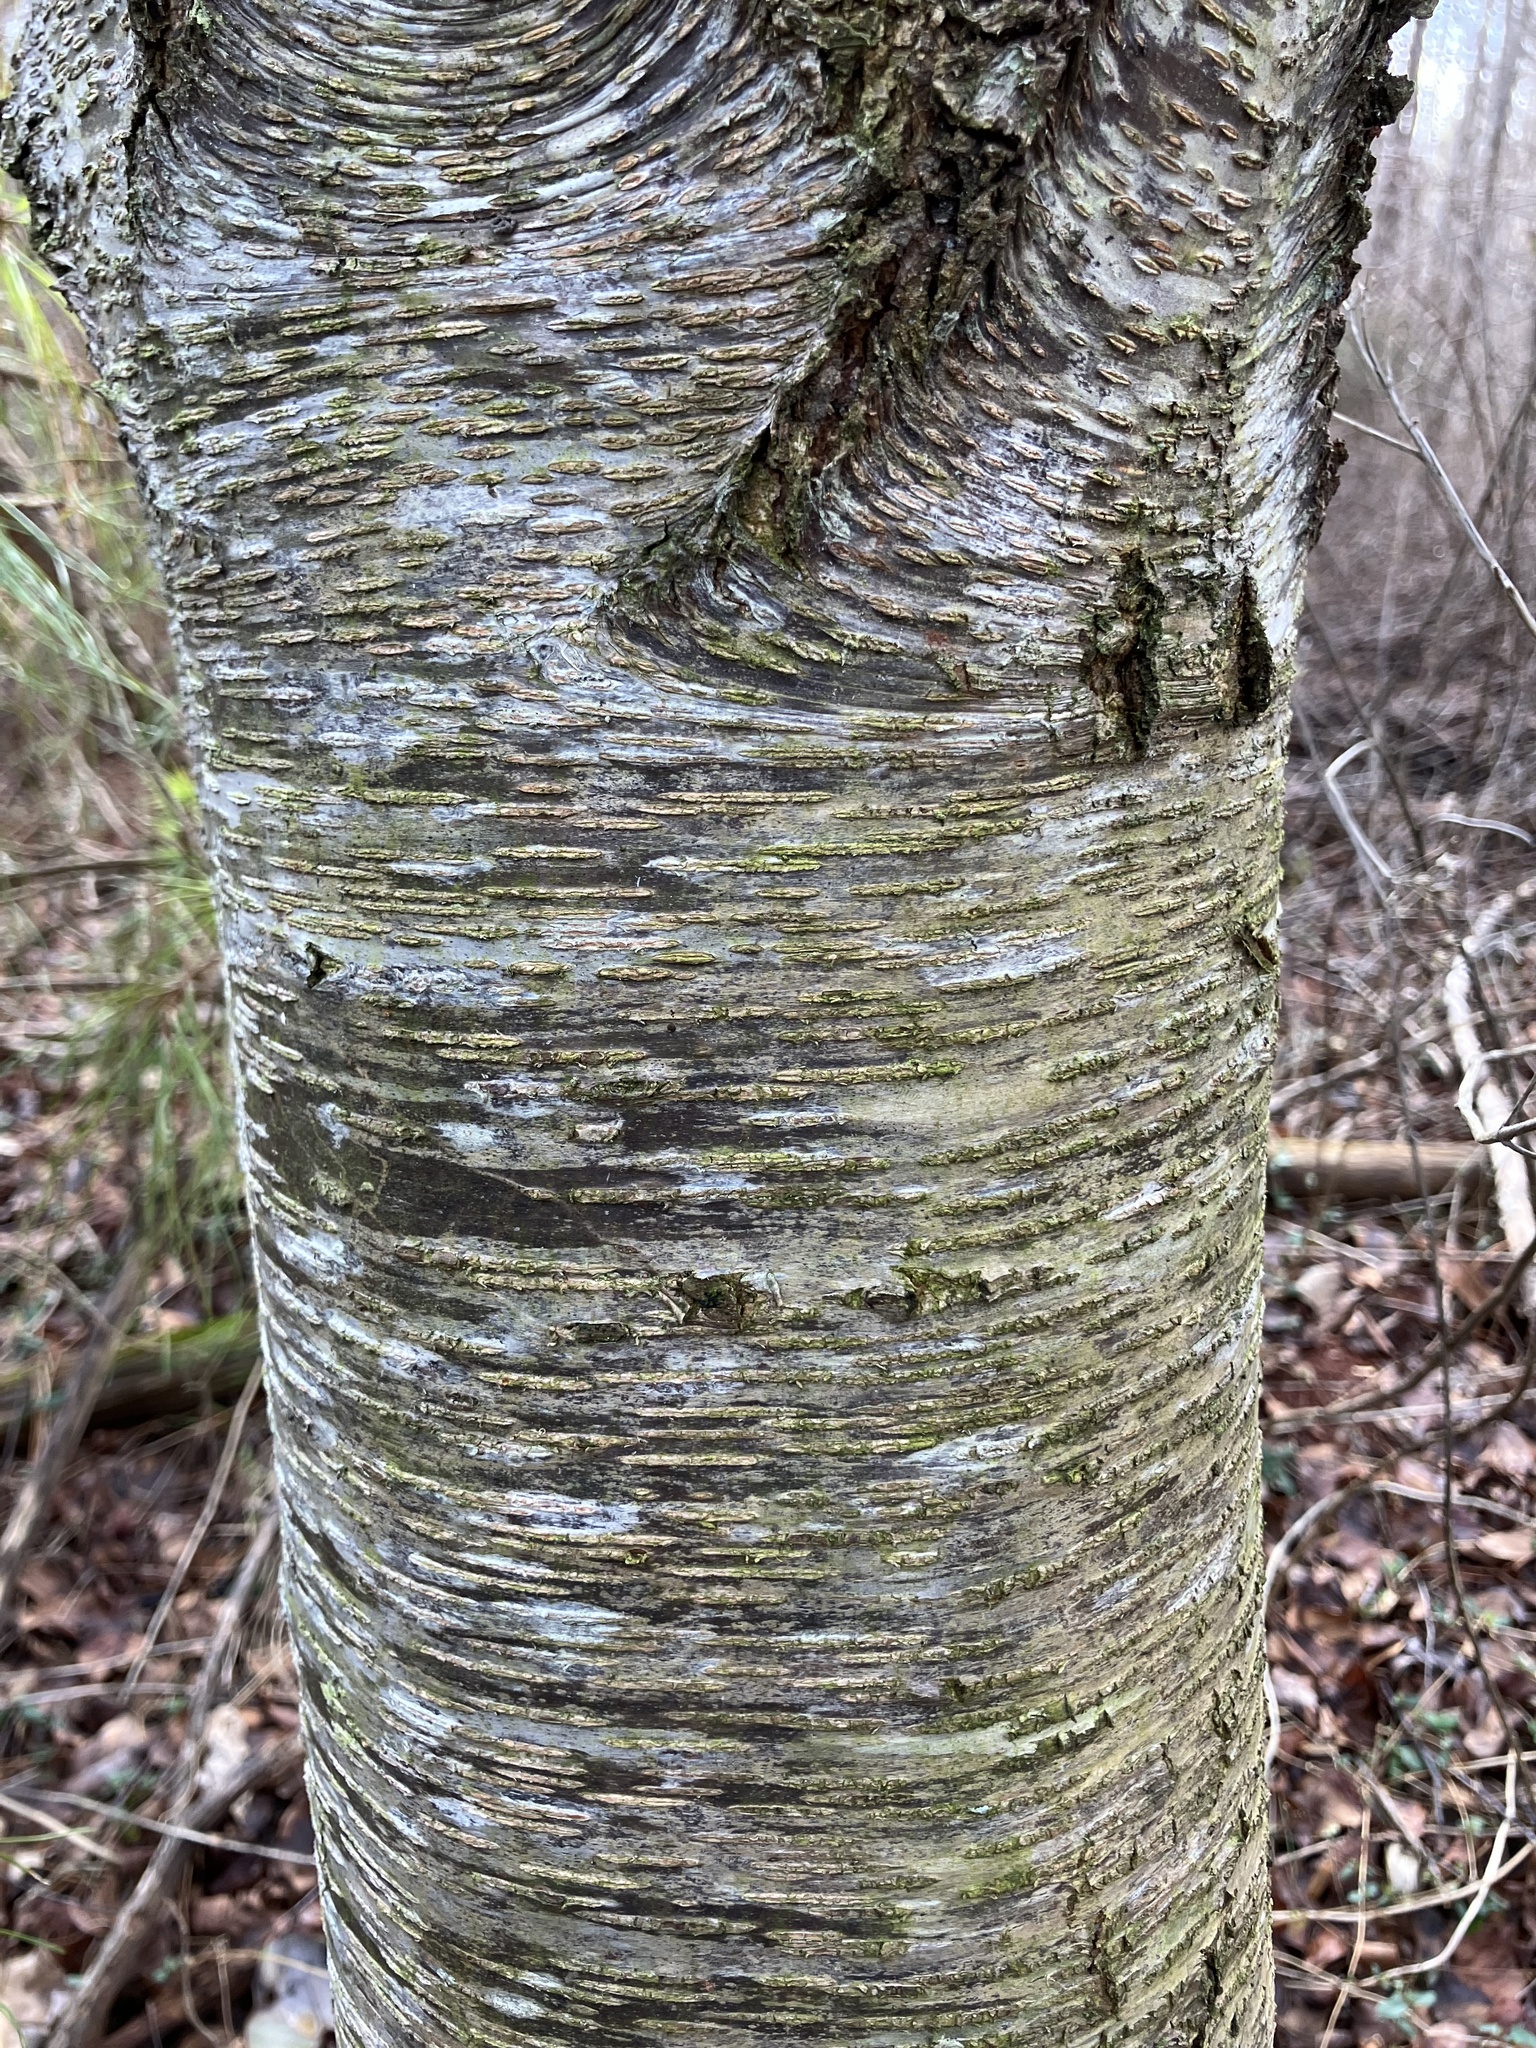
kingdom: Plantae
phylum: Tracheophyta
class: Magnoliopsida
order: Rosales
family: Rosaceae
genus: Prunus
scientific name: Prunus serotina
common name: Black cherry
